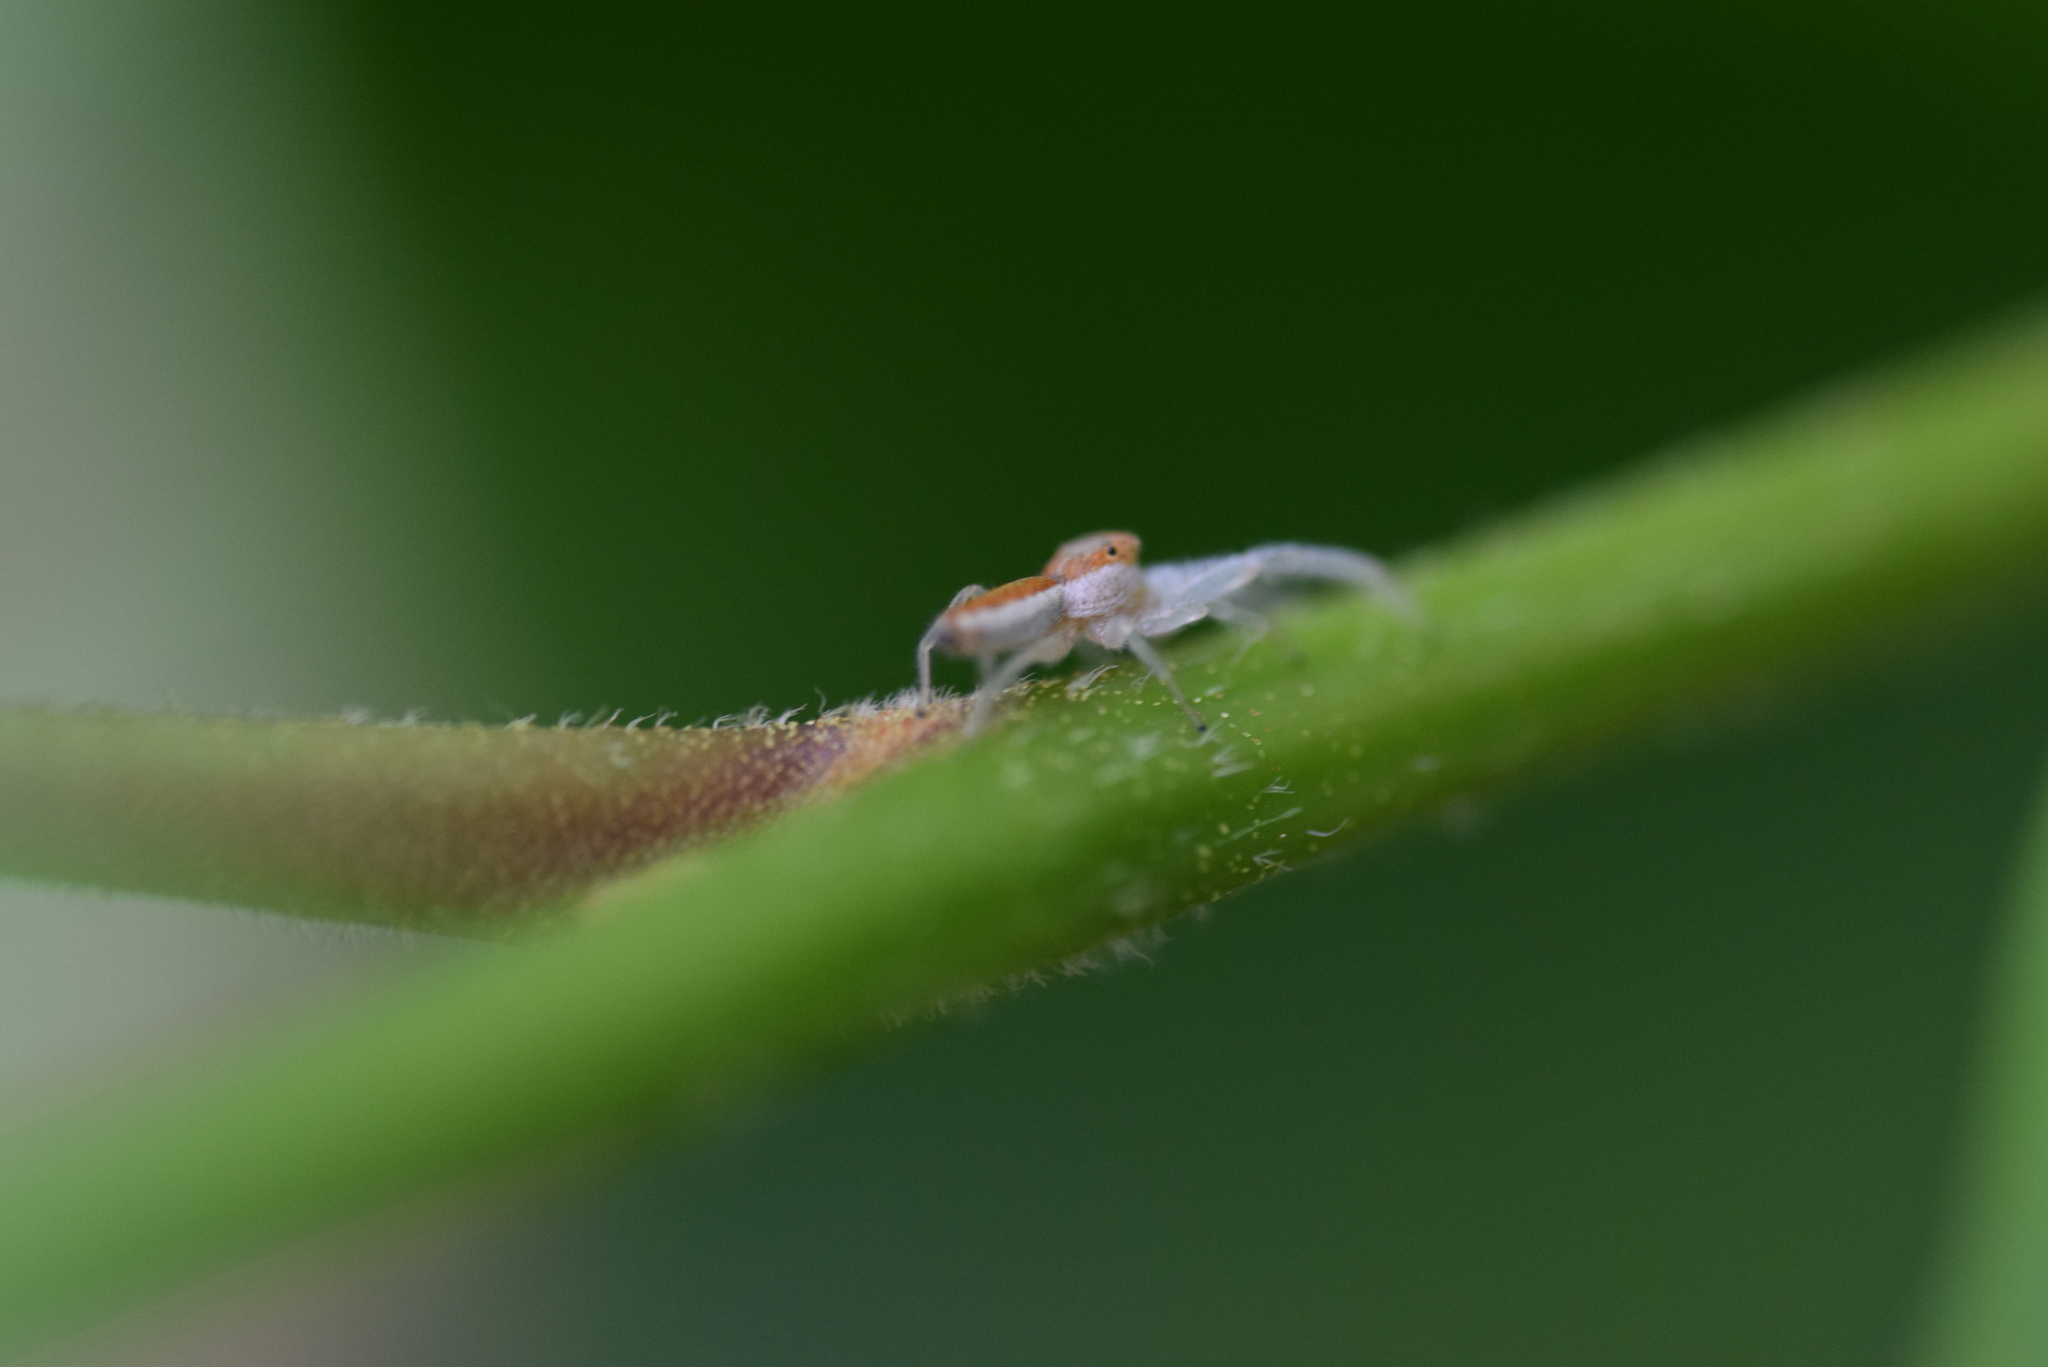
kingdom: Animalia
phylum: Arthropoda
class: Arachnida
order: Araneae
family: Salticidae
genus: Hentzia
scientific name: Hentzia mitrata
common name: White-jawed jumping spider
